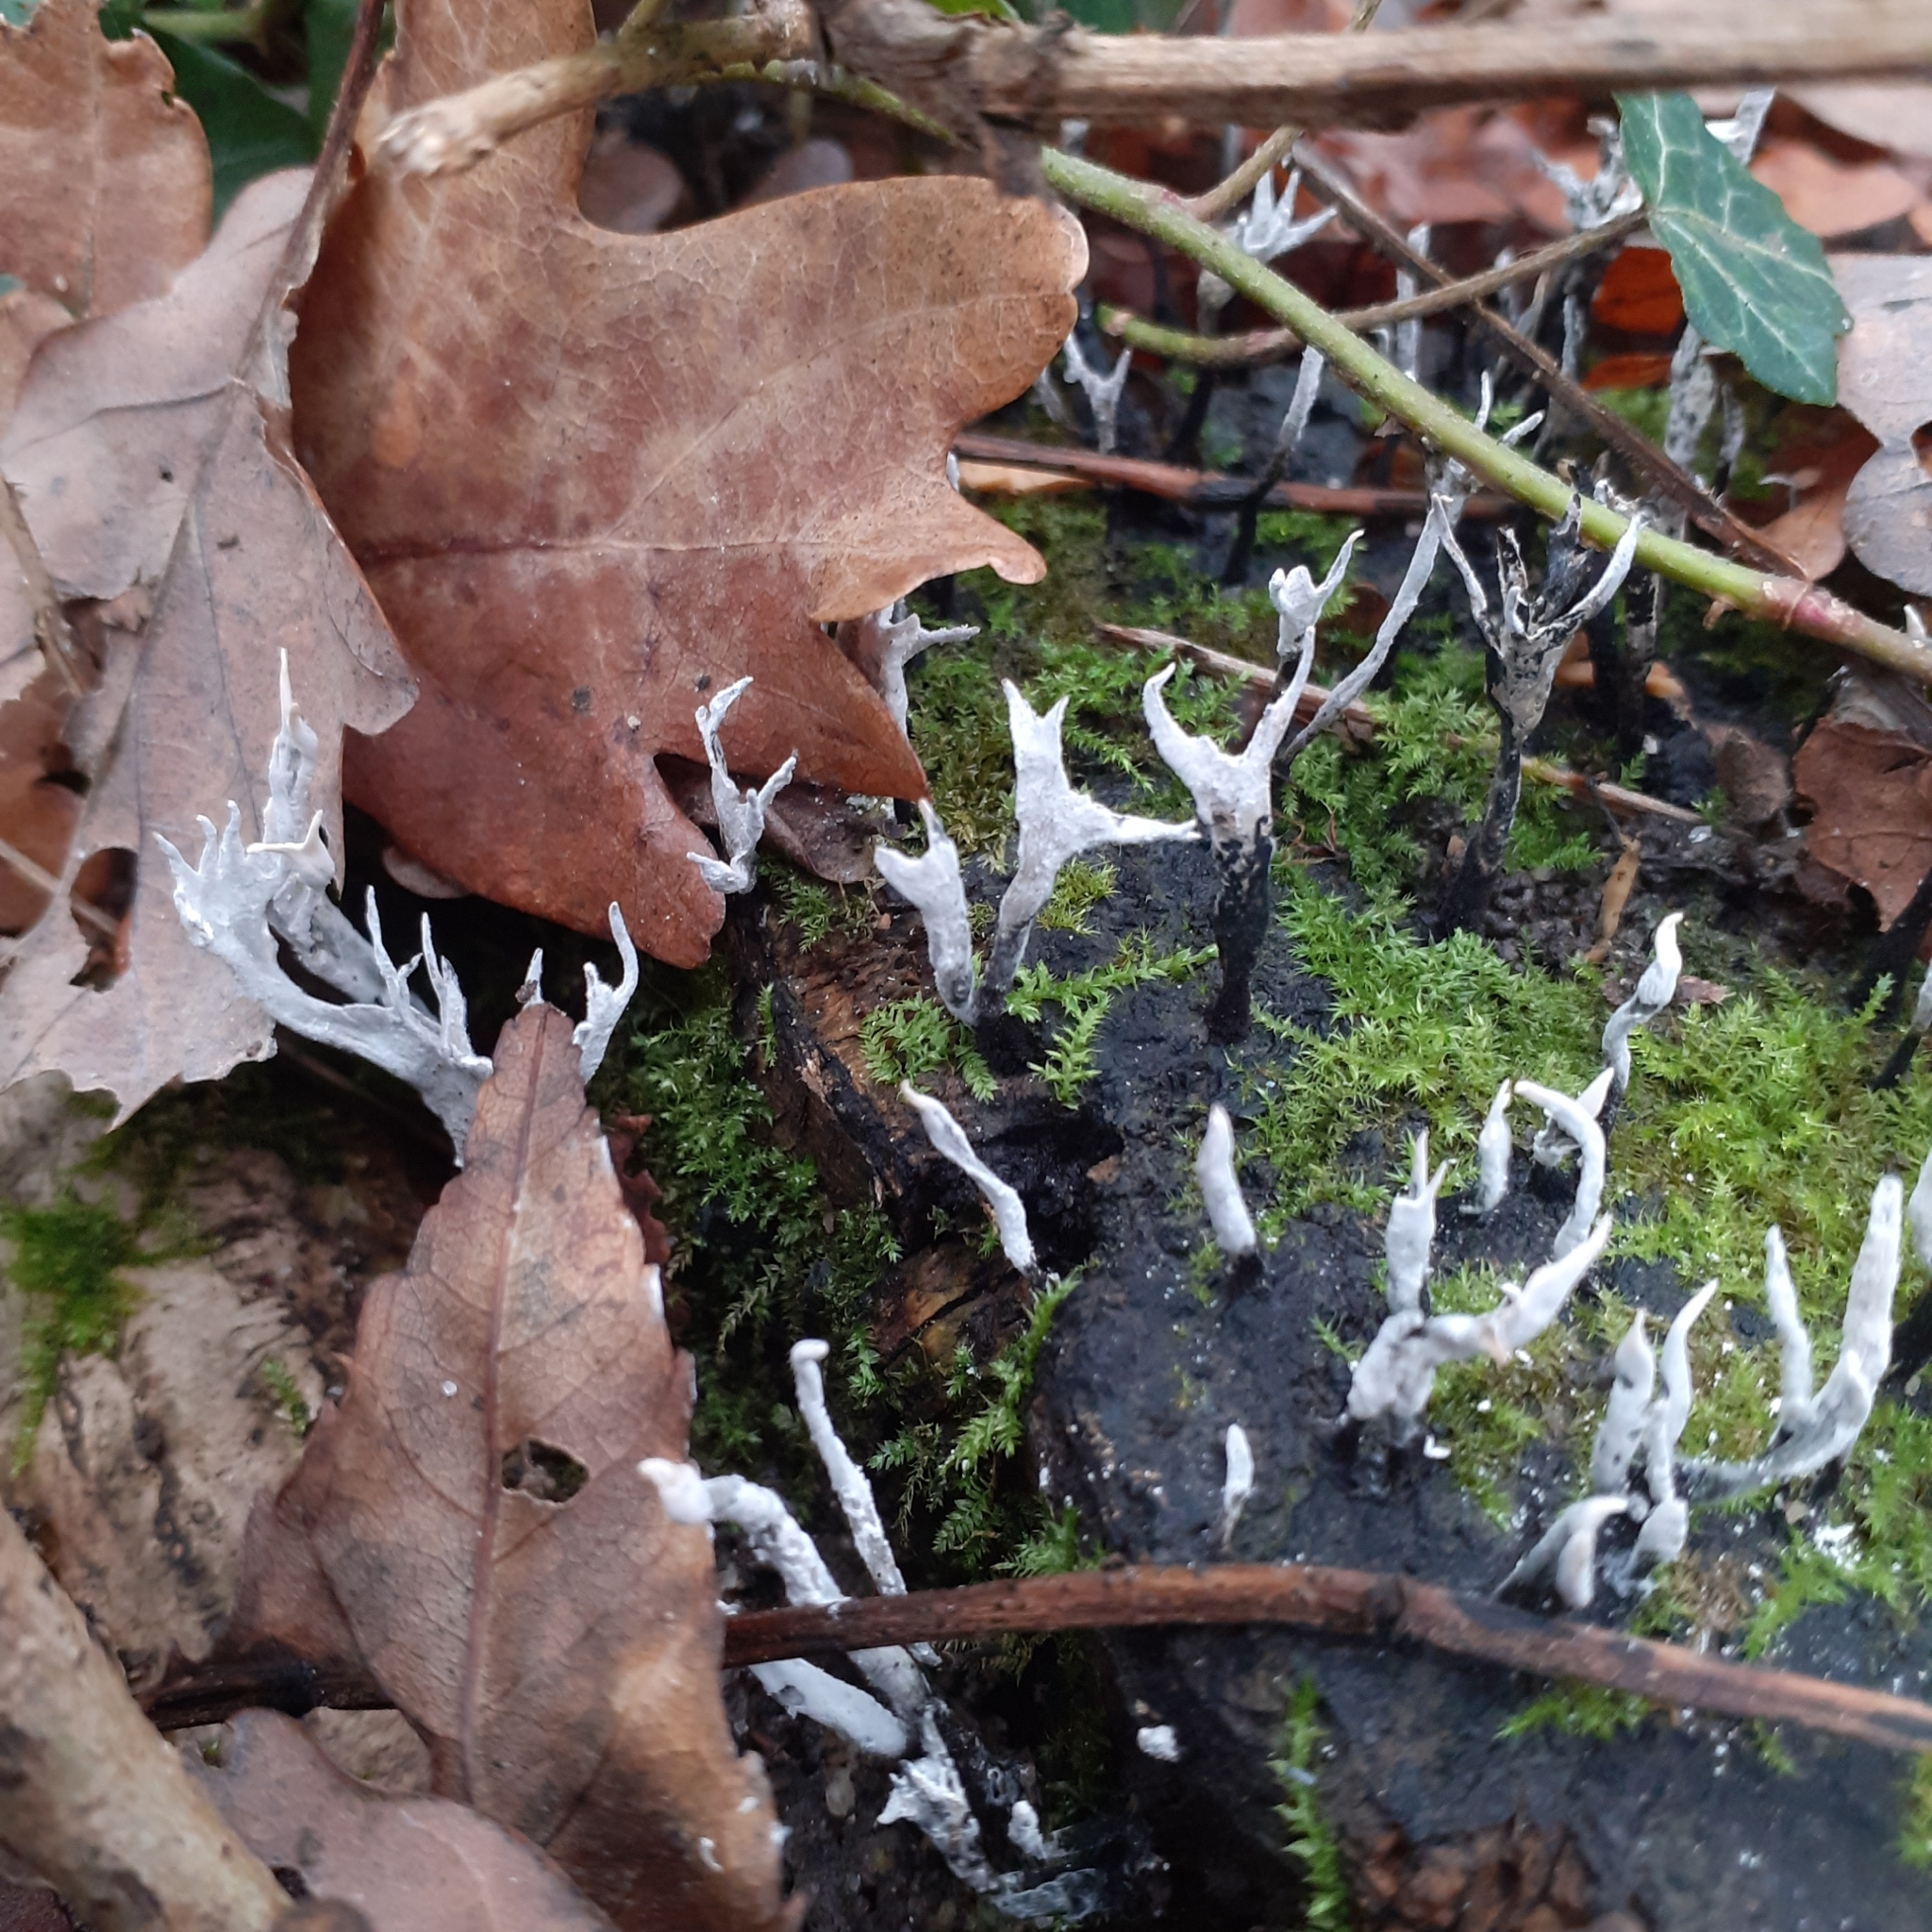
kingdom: Fungi
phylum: Ascomycota
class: Sordariomycetes
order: Xylariales
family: Xylariaceae
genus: Xylaria
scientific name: Xylaria hypoxylon
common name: Candle-snuff fungus
